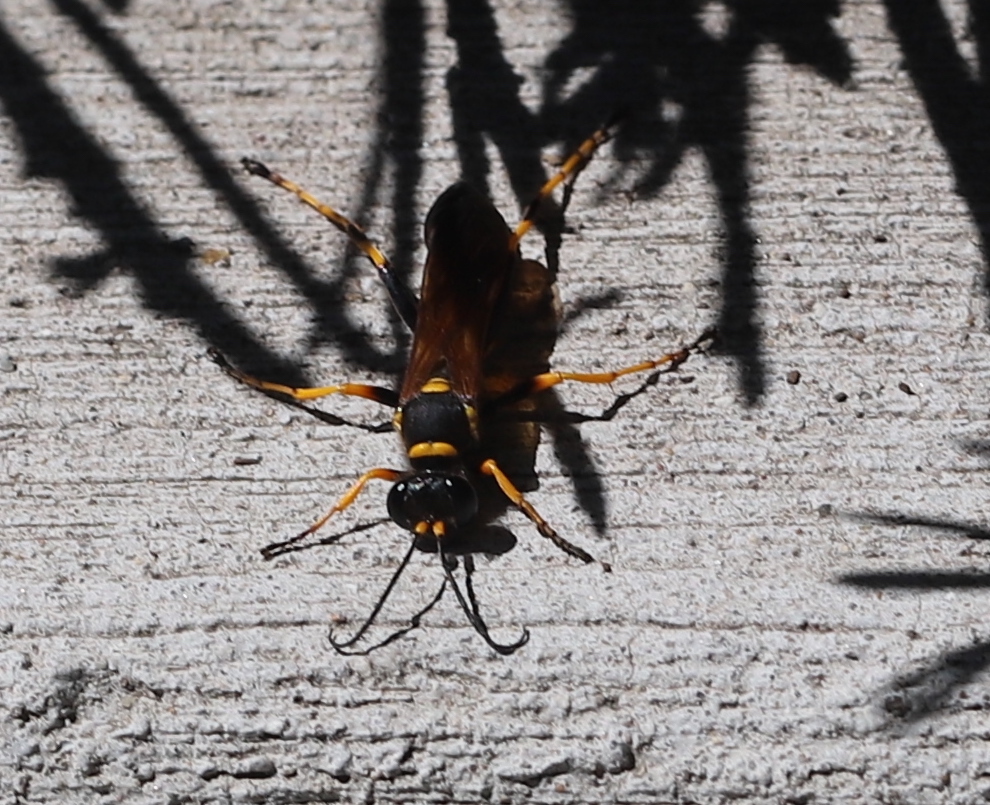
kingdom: Animalia
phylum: Arthropoda
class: Insecta
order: Hymenoptera
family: Sphecidae
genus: Sceliphron
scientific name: Sceliphron caementarium
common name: Mud dauber
